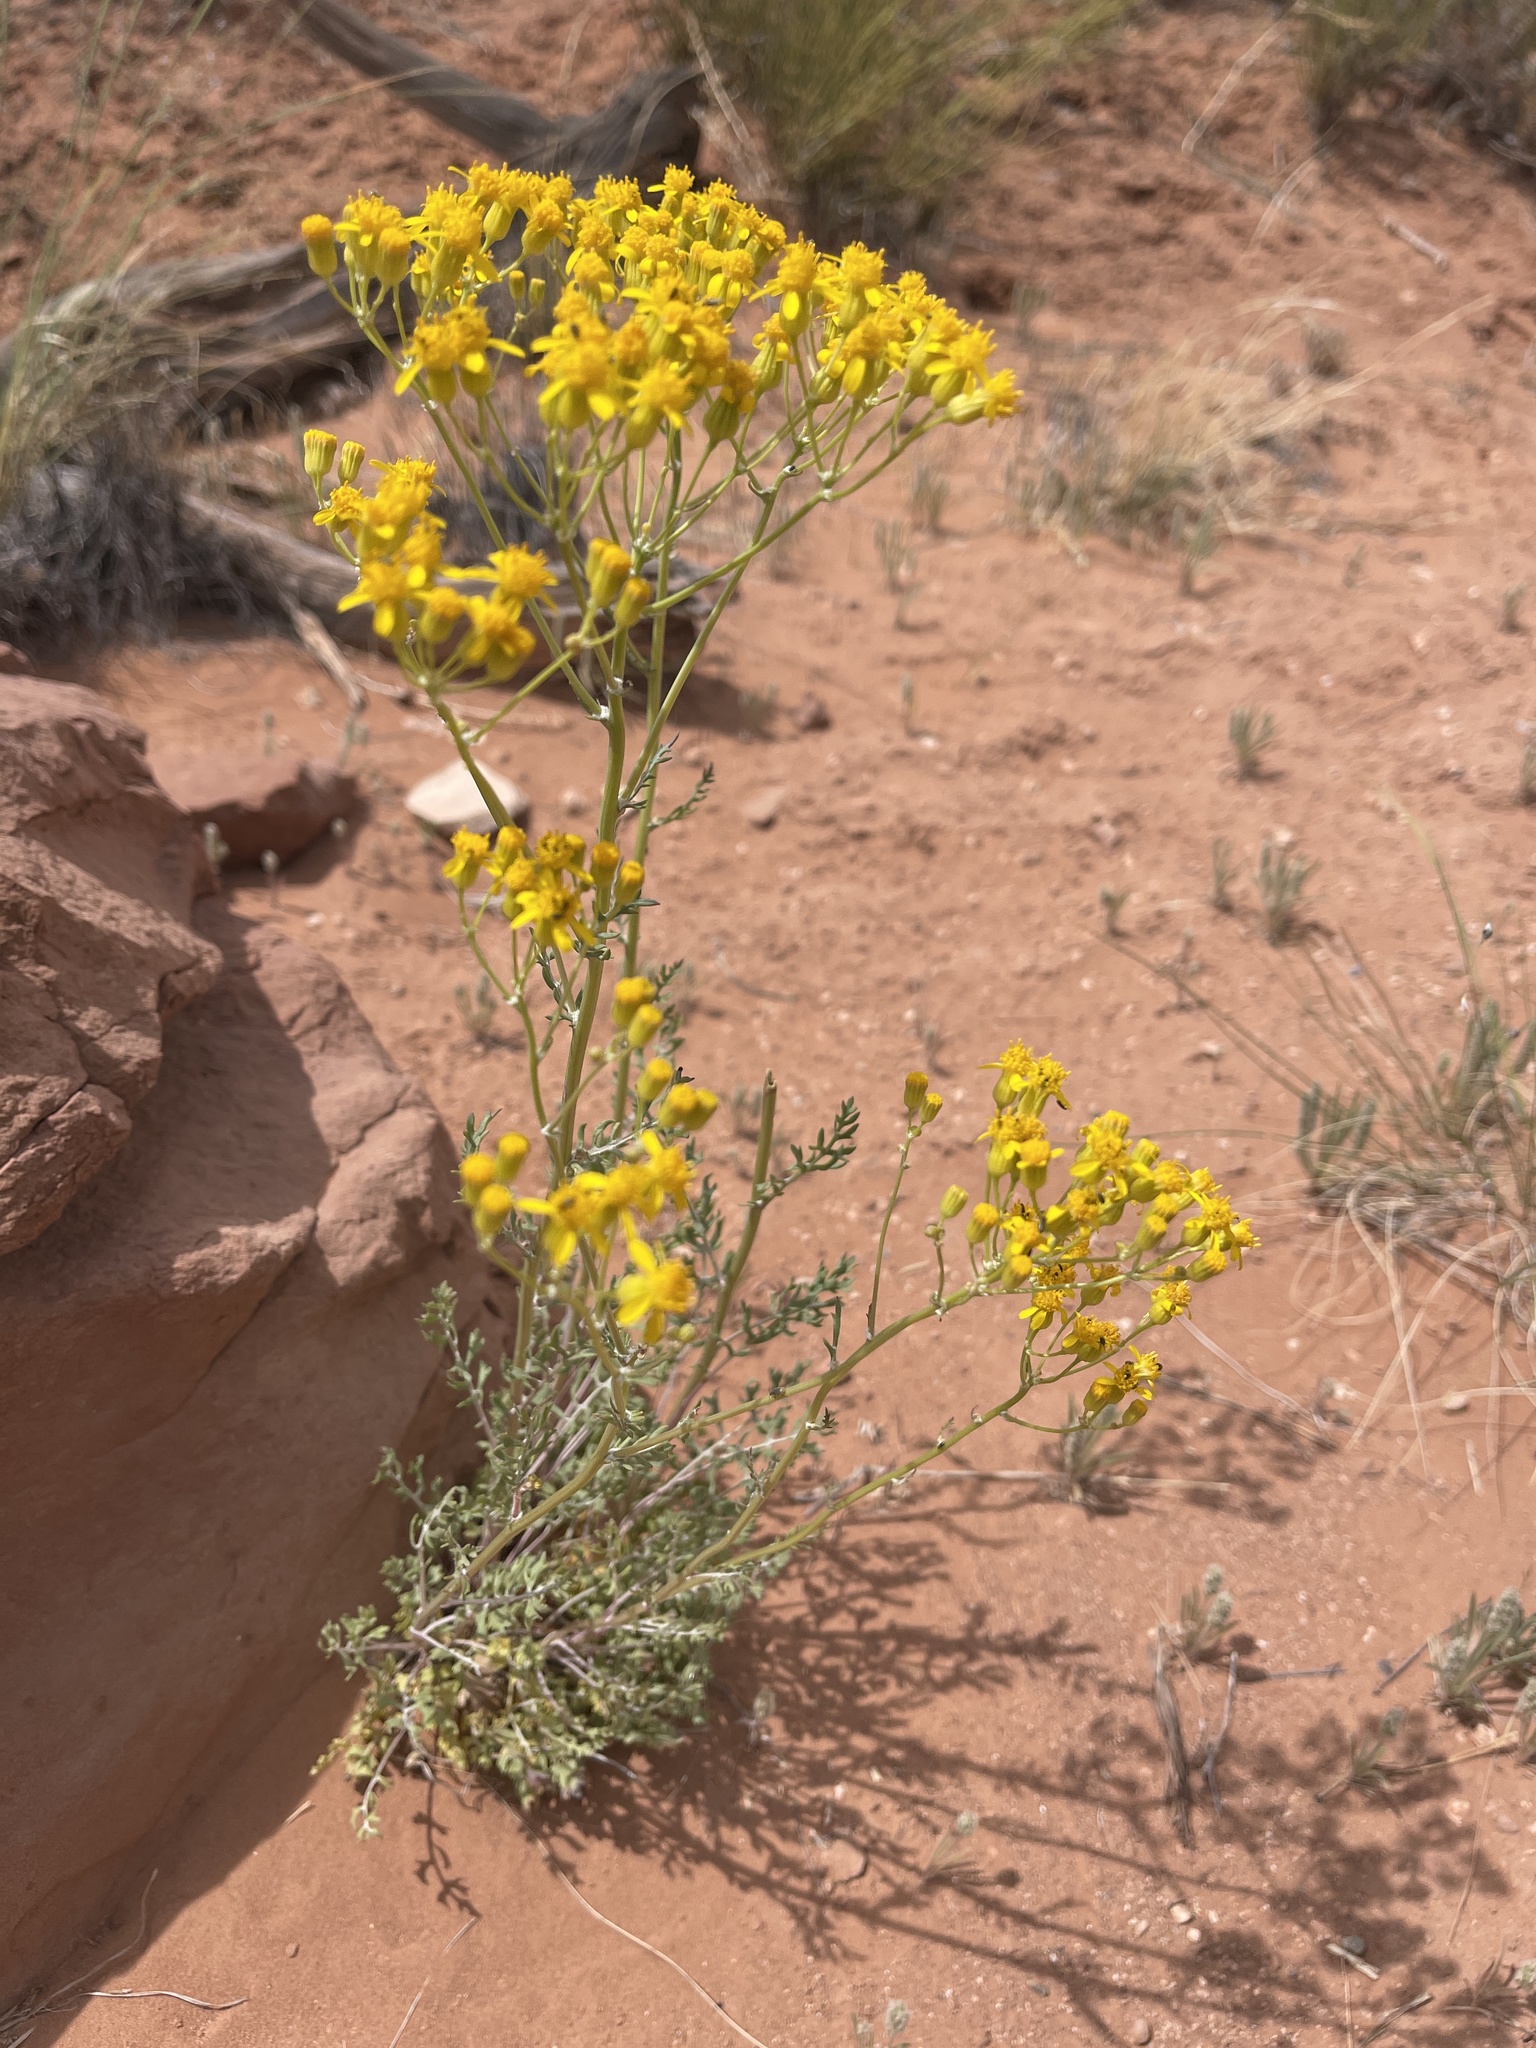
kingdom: Plantae
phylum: Tracheophyta
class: Magnoliopsida
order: Asterales
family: Asteraceae
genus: Packera
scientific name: Packera multilobata
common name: Lobe-leaf groundsel
